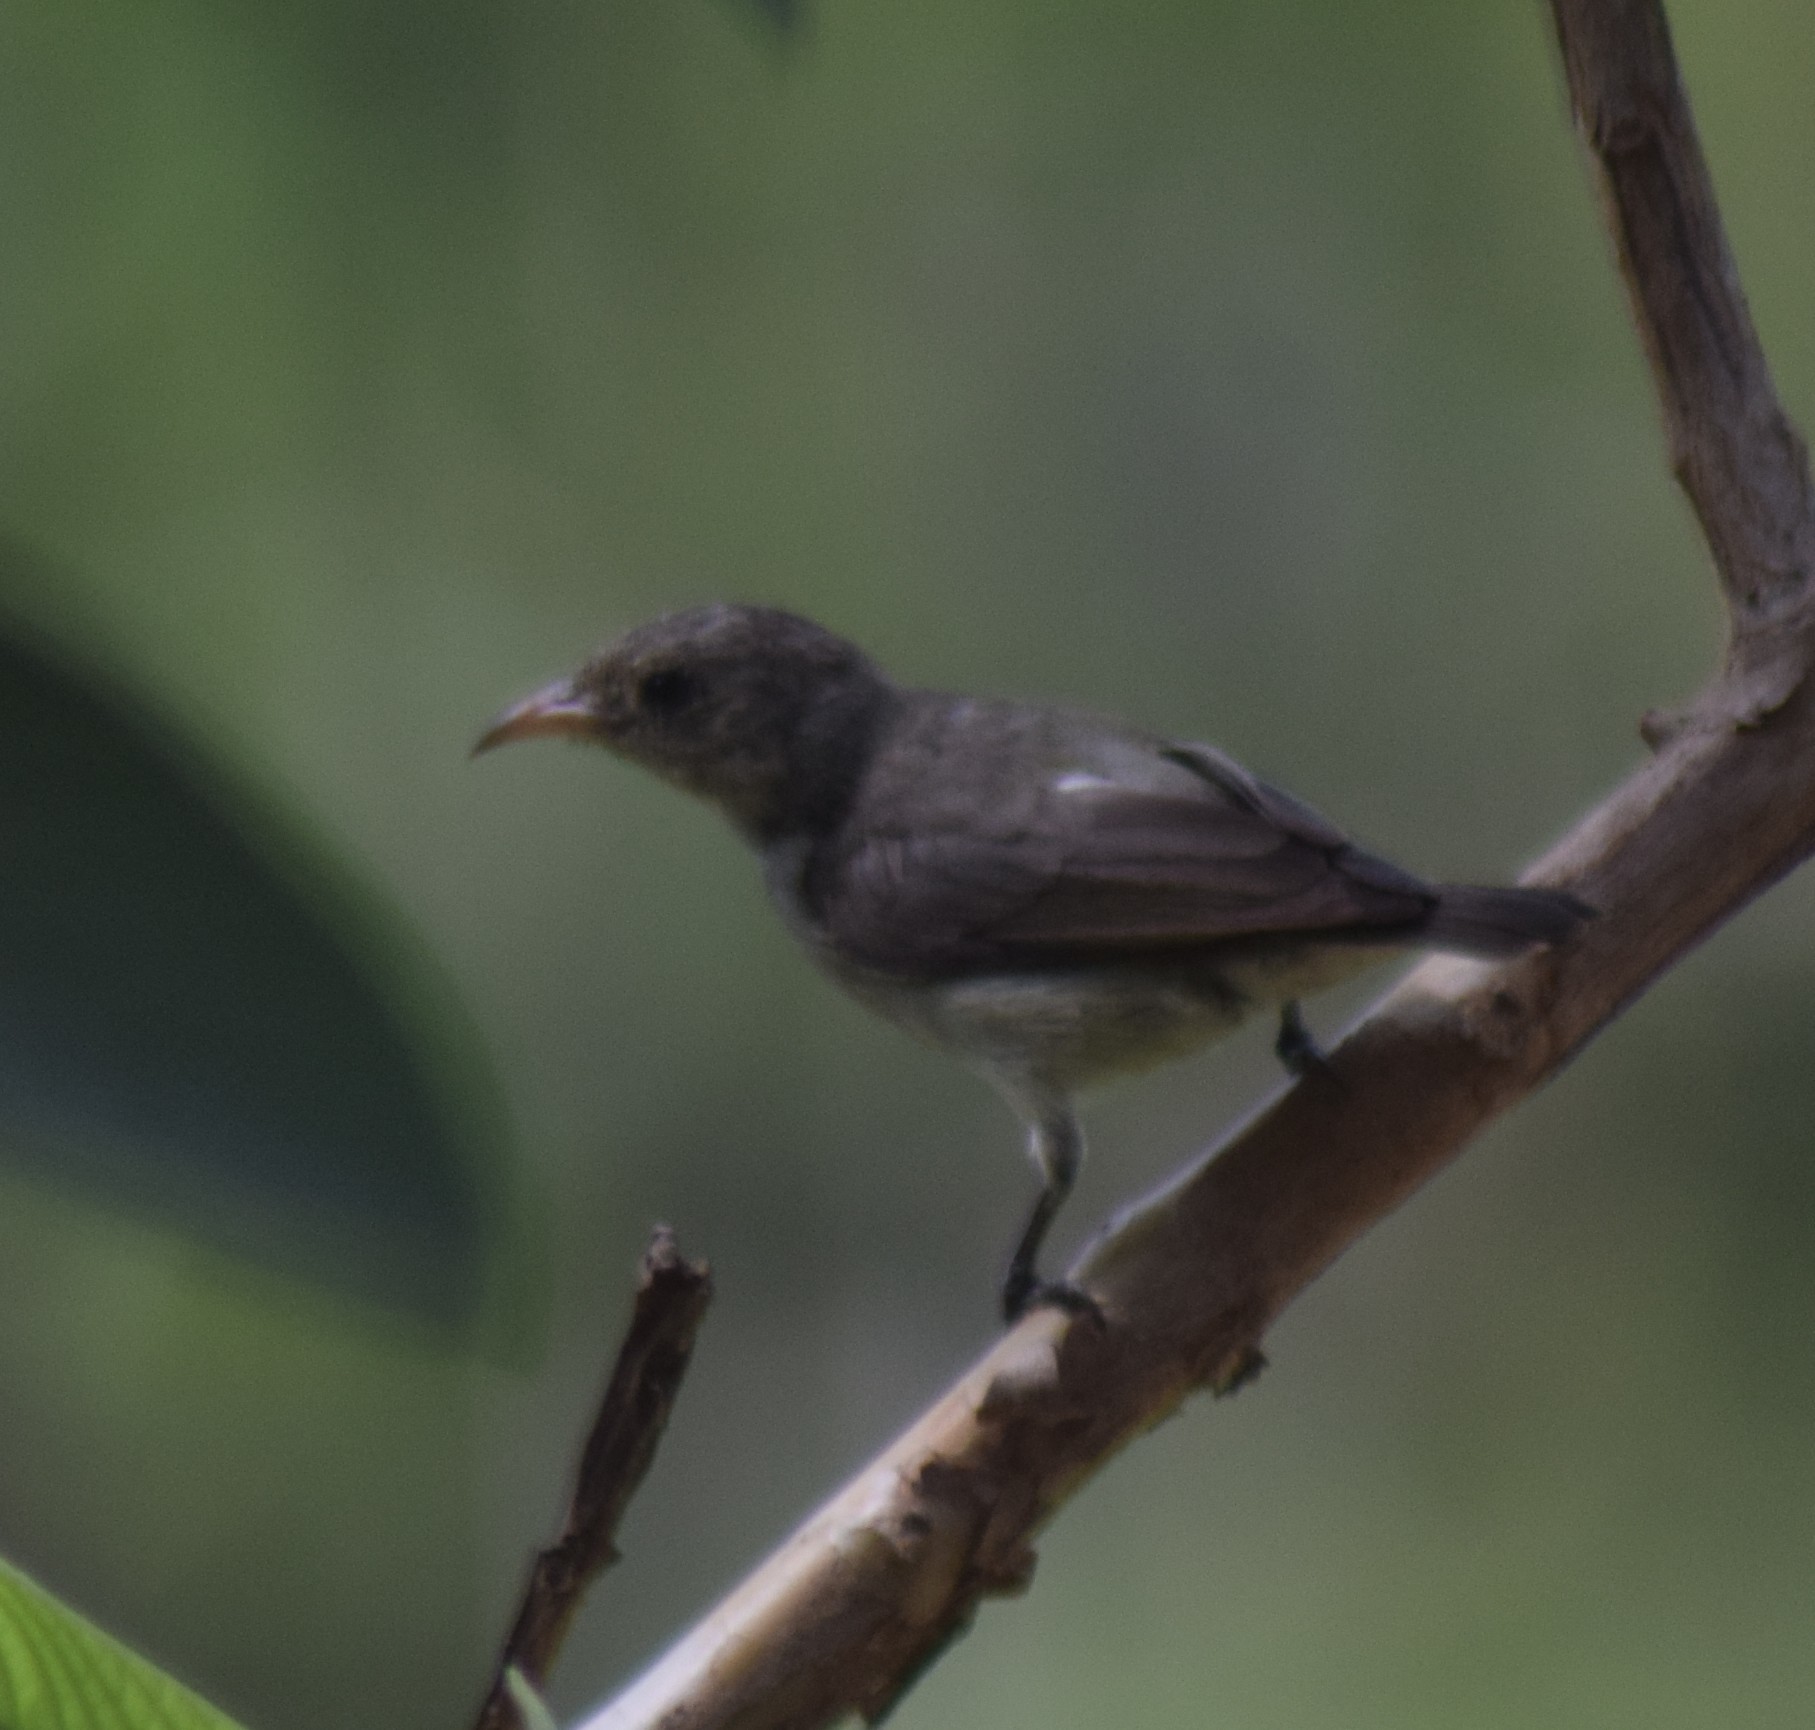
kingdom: Animalia
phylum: Chordata
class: Aves
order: Passeriformes
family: Dicaeidae
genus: Dicaeum
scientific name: Dicaeum erythrorhynchos
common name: Pale-billed flowerpecker
